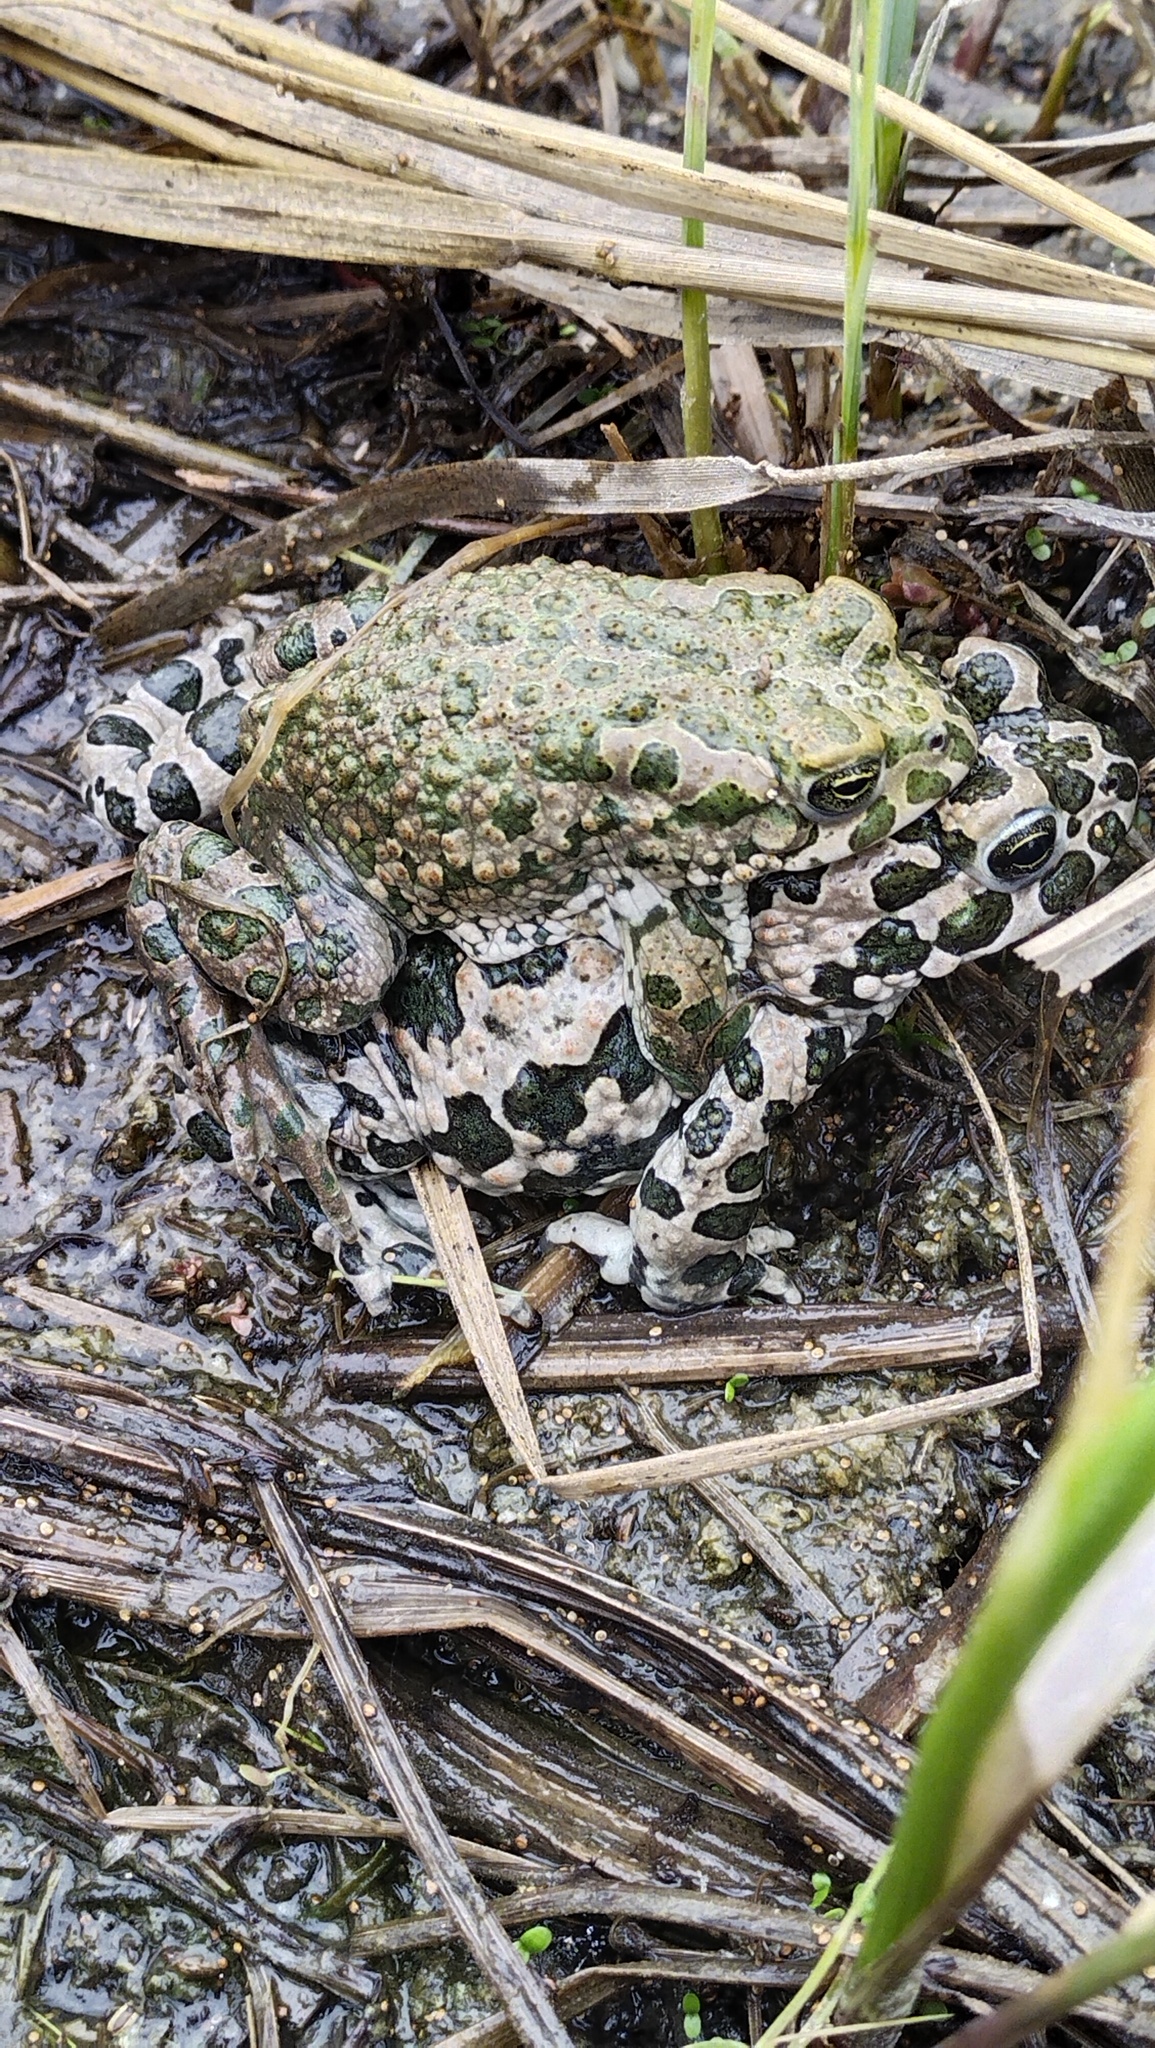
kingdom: Animalia
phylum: Chordata
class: Amphibia
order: Anura
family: Bufonidae
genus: Bufotes
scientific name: Bufotes viridis
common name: European green toad
